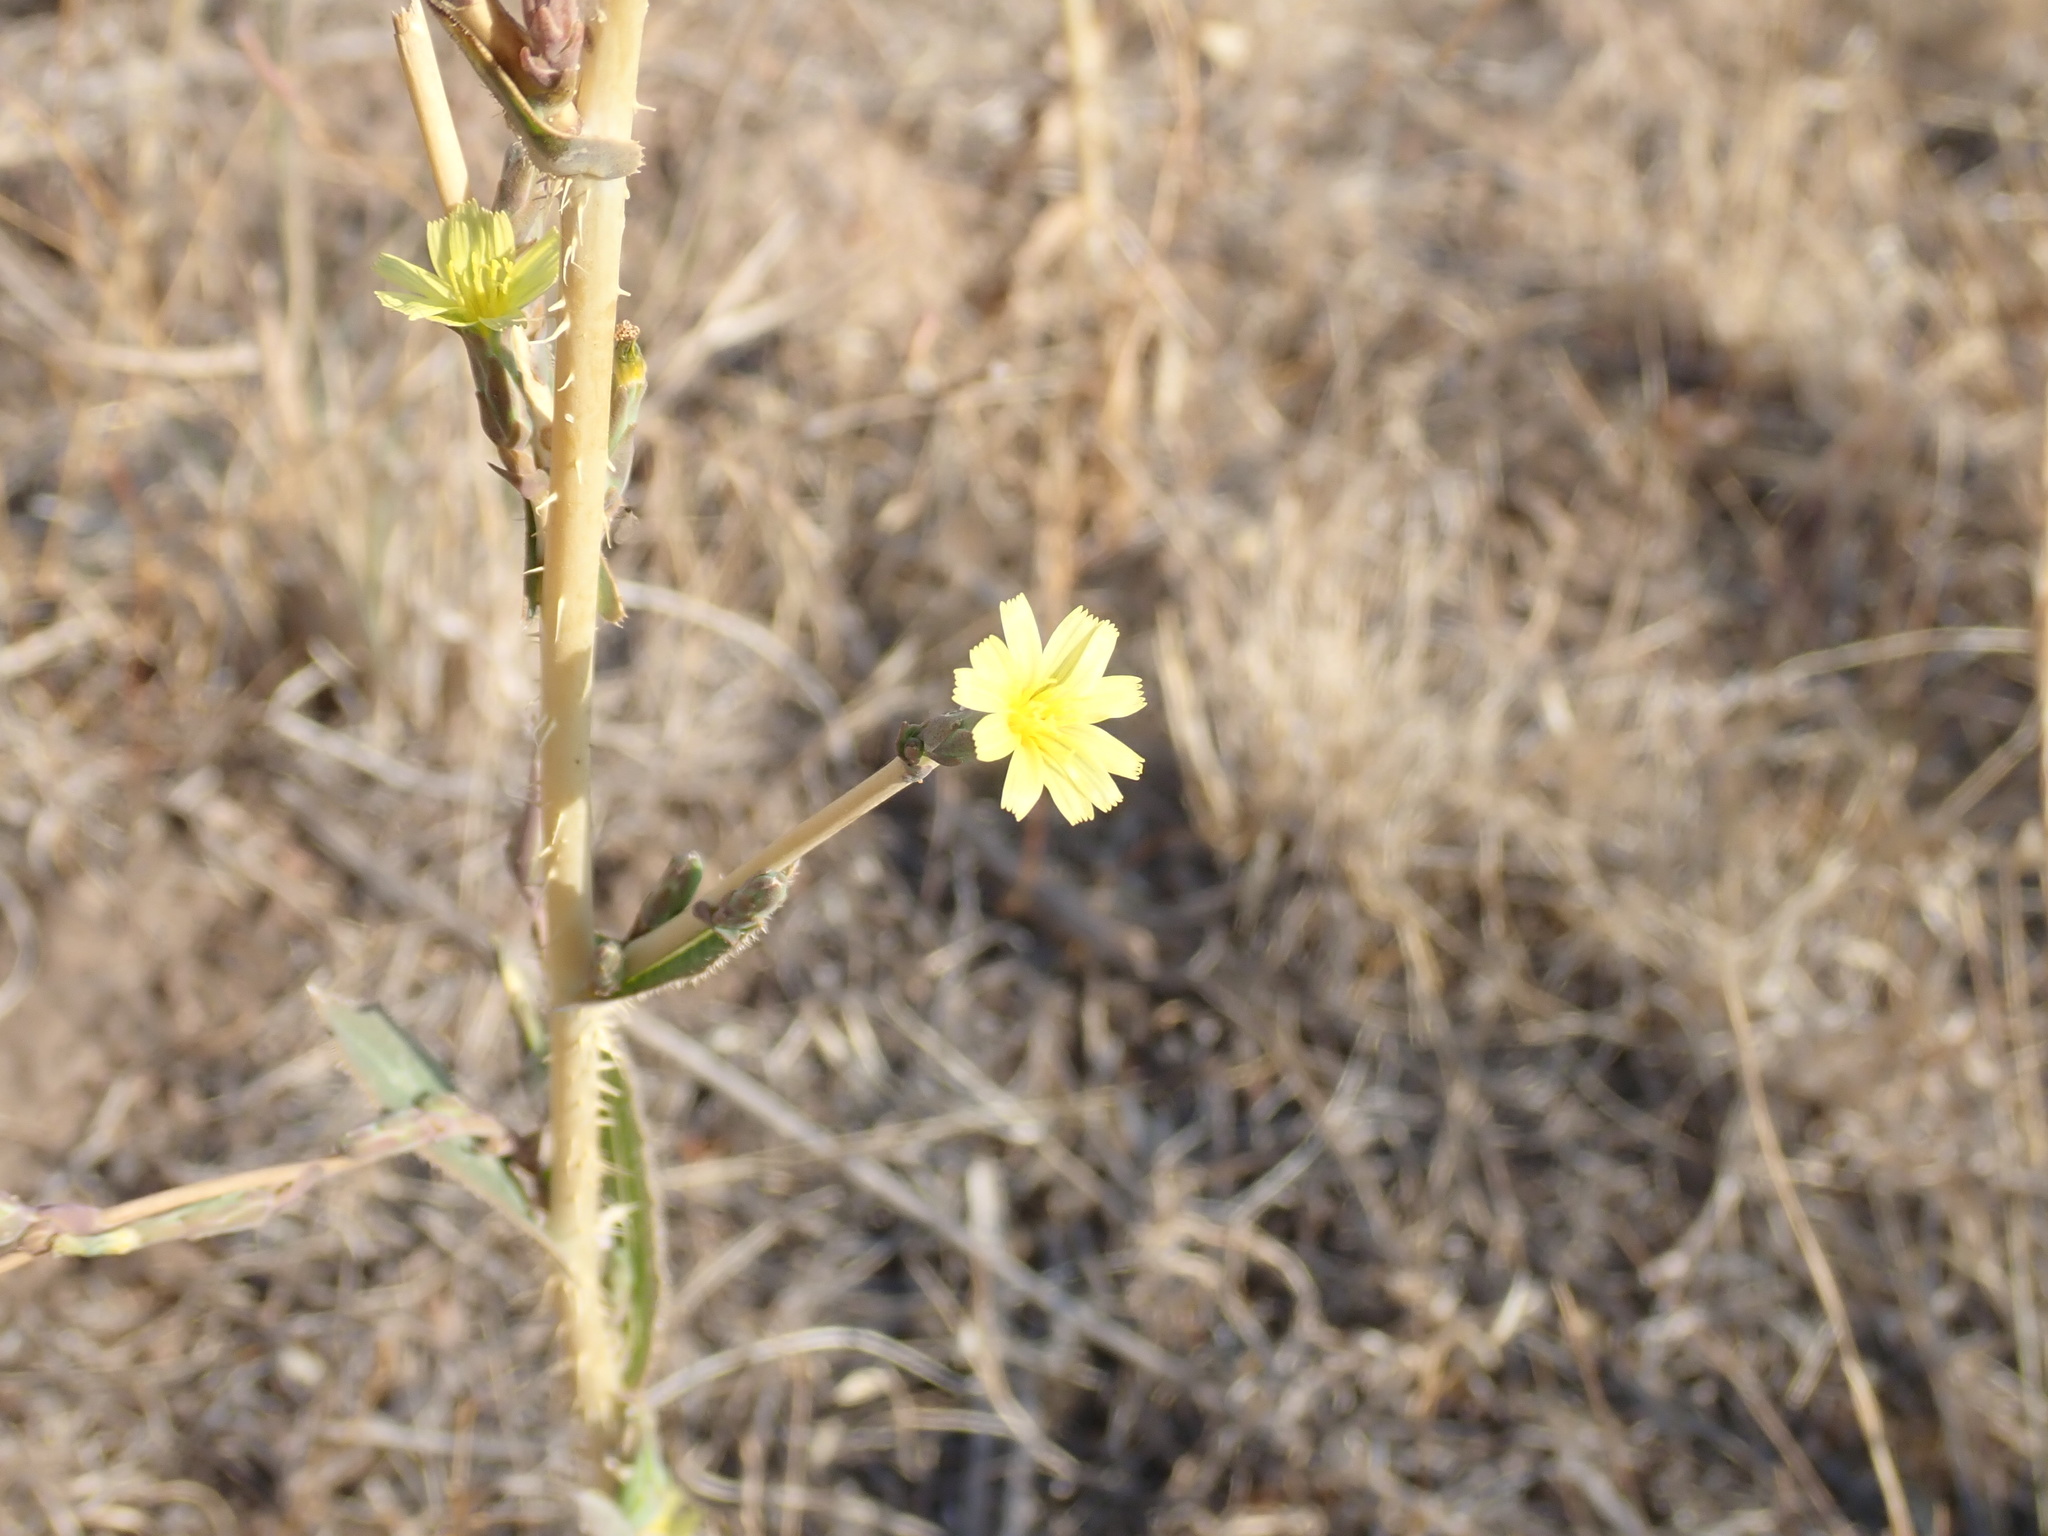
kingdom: Plantae
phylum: Tracheophyta
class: Magnoliopsida
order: Asterales
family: Asteraceae
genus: Lactuca
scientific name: Lactuca serriola
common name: Prickly lettuce
